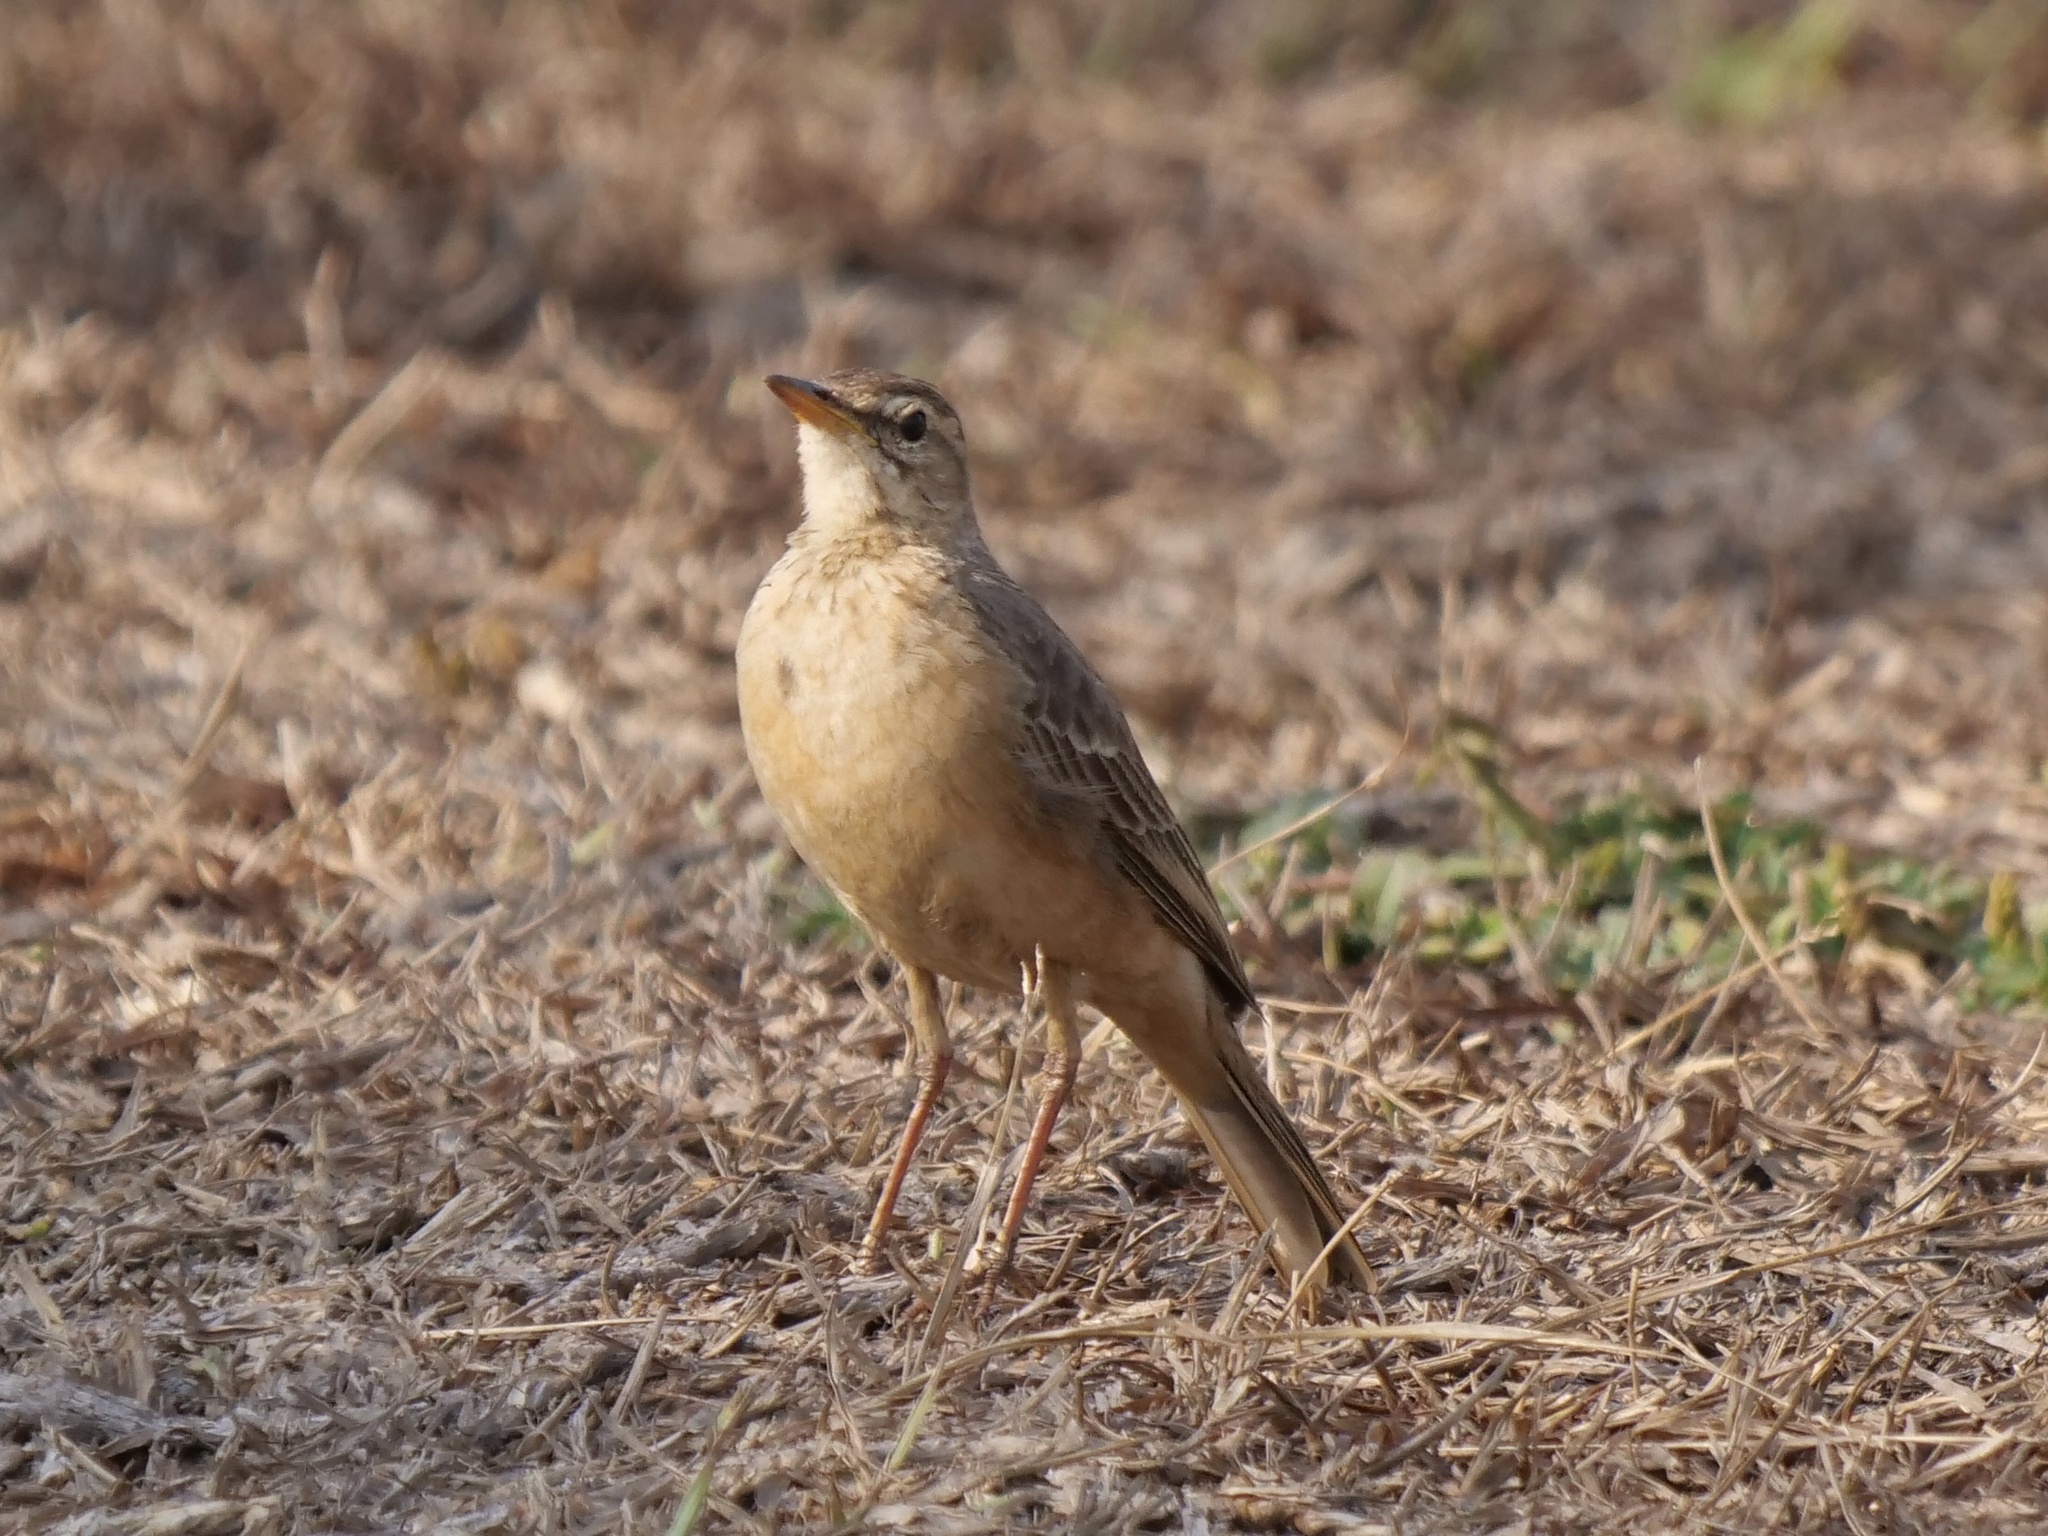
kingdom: Animalia
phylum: Chordata
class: Aves
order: Passeriformes
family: Motacillidae
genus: Anthus
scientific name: Anthus leucophrys
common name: Plain-backed pipit
